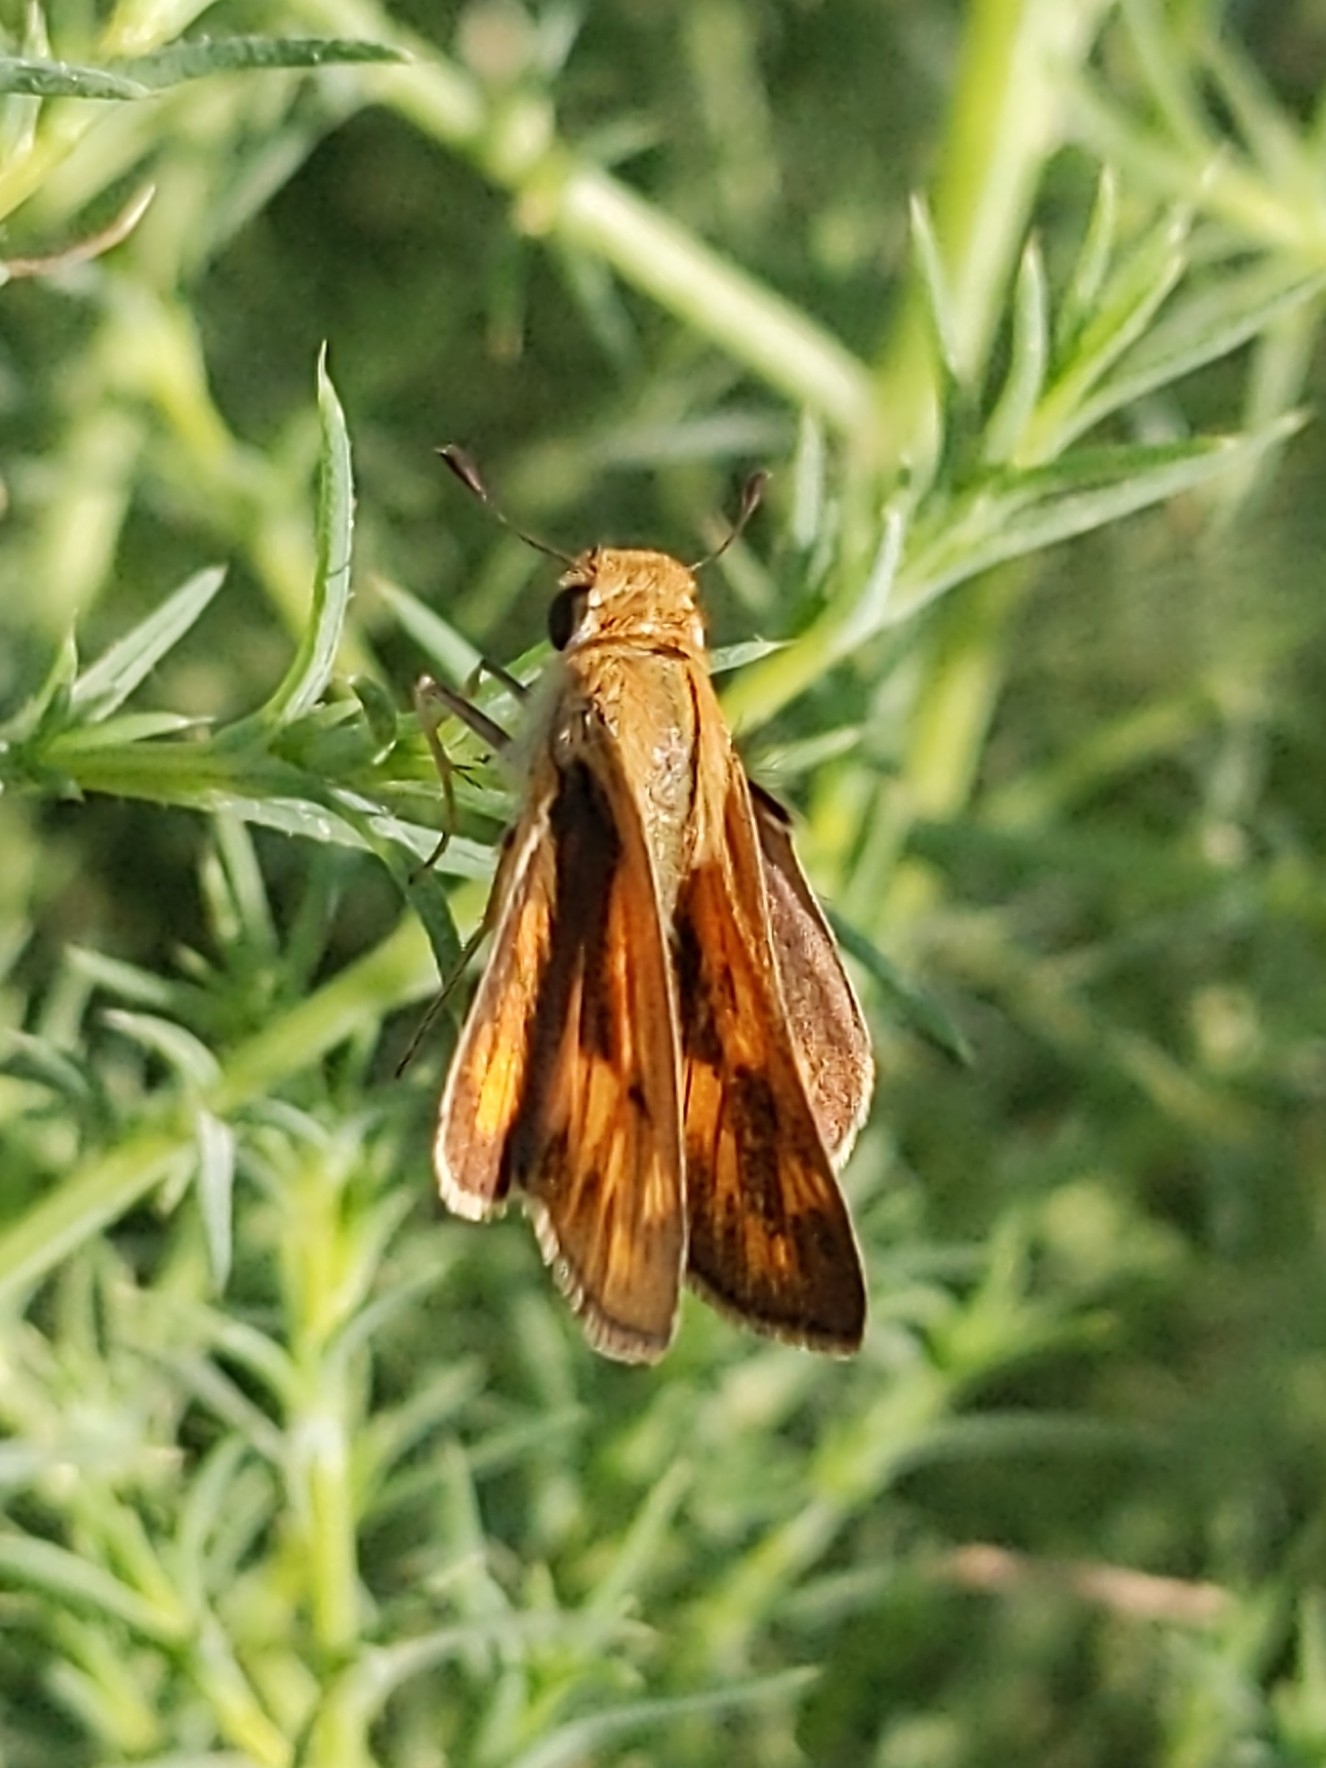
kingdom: Animalia
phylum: Arthropoda
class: Insecta
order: Lepidoptera
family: Hesperiidae
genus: Hylephila
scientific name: Hylephila phyleus
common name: Fiery skipper
